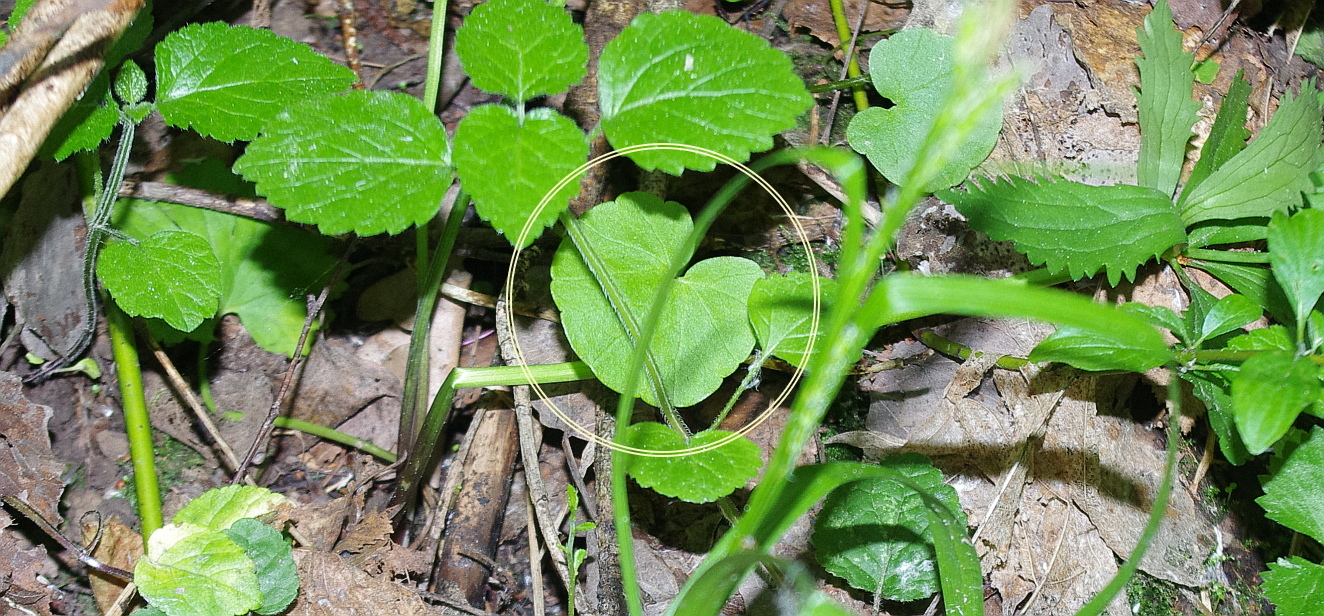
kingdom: Plantae
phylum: Tracheophyta
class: Magnoliopsida
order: Ranunculales
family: Ranunculaceae
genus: Ficaria
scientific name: Ficaria verna
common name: Lesser celandine
